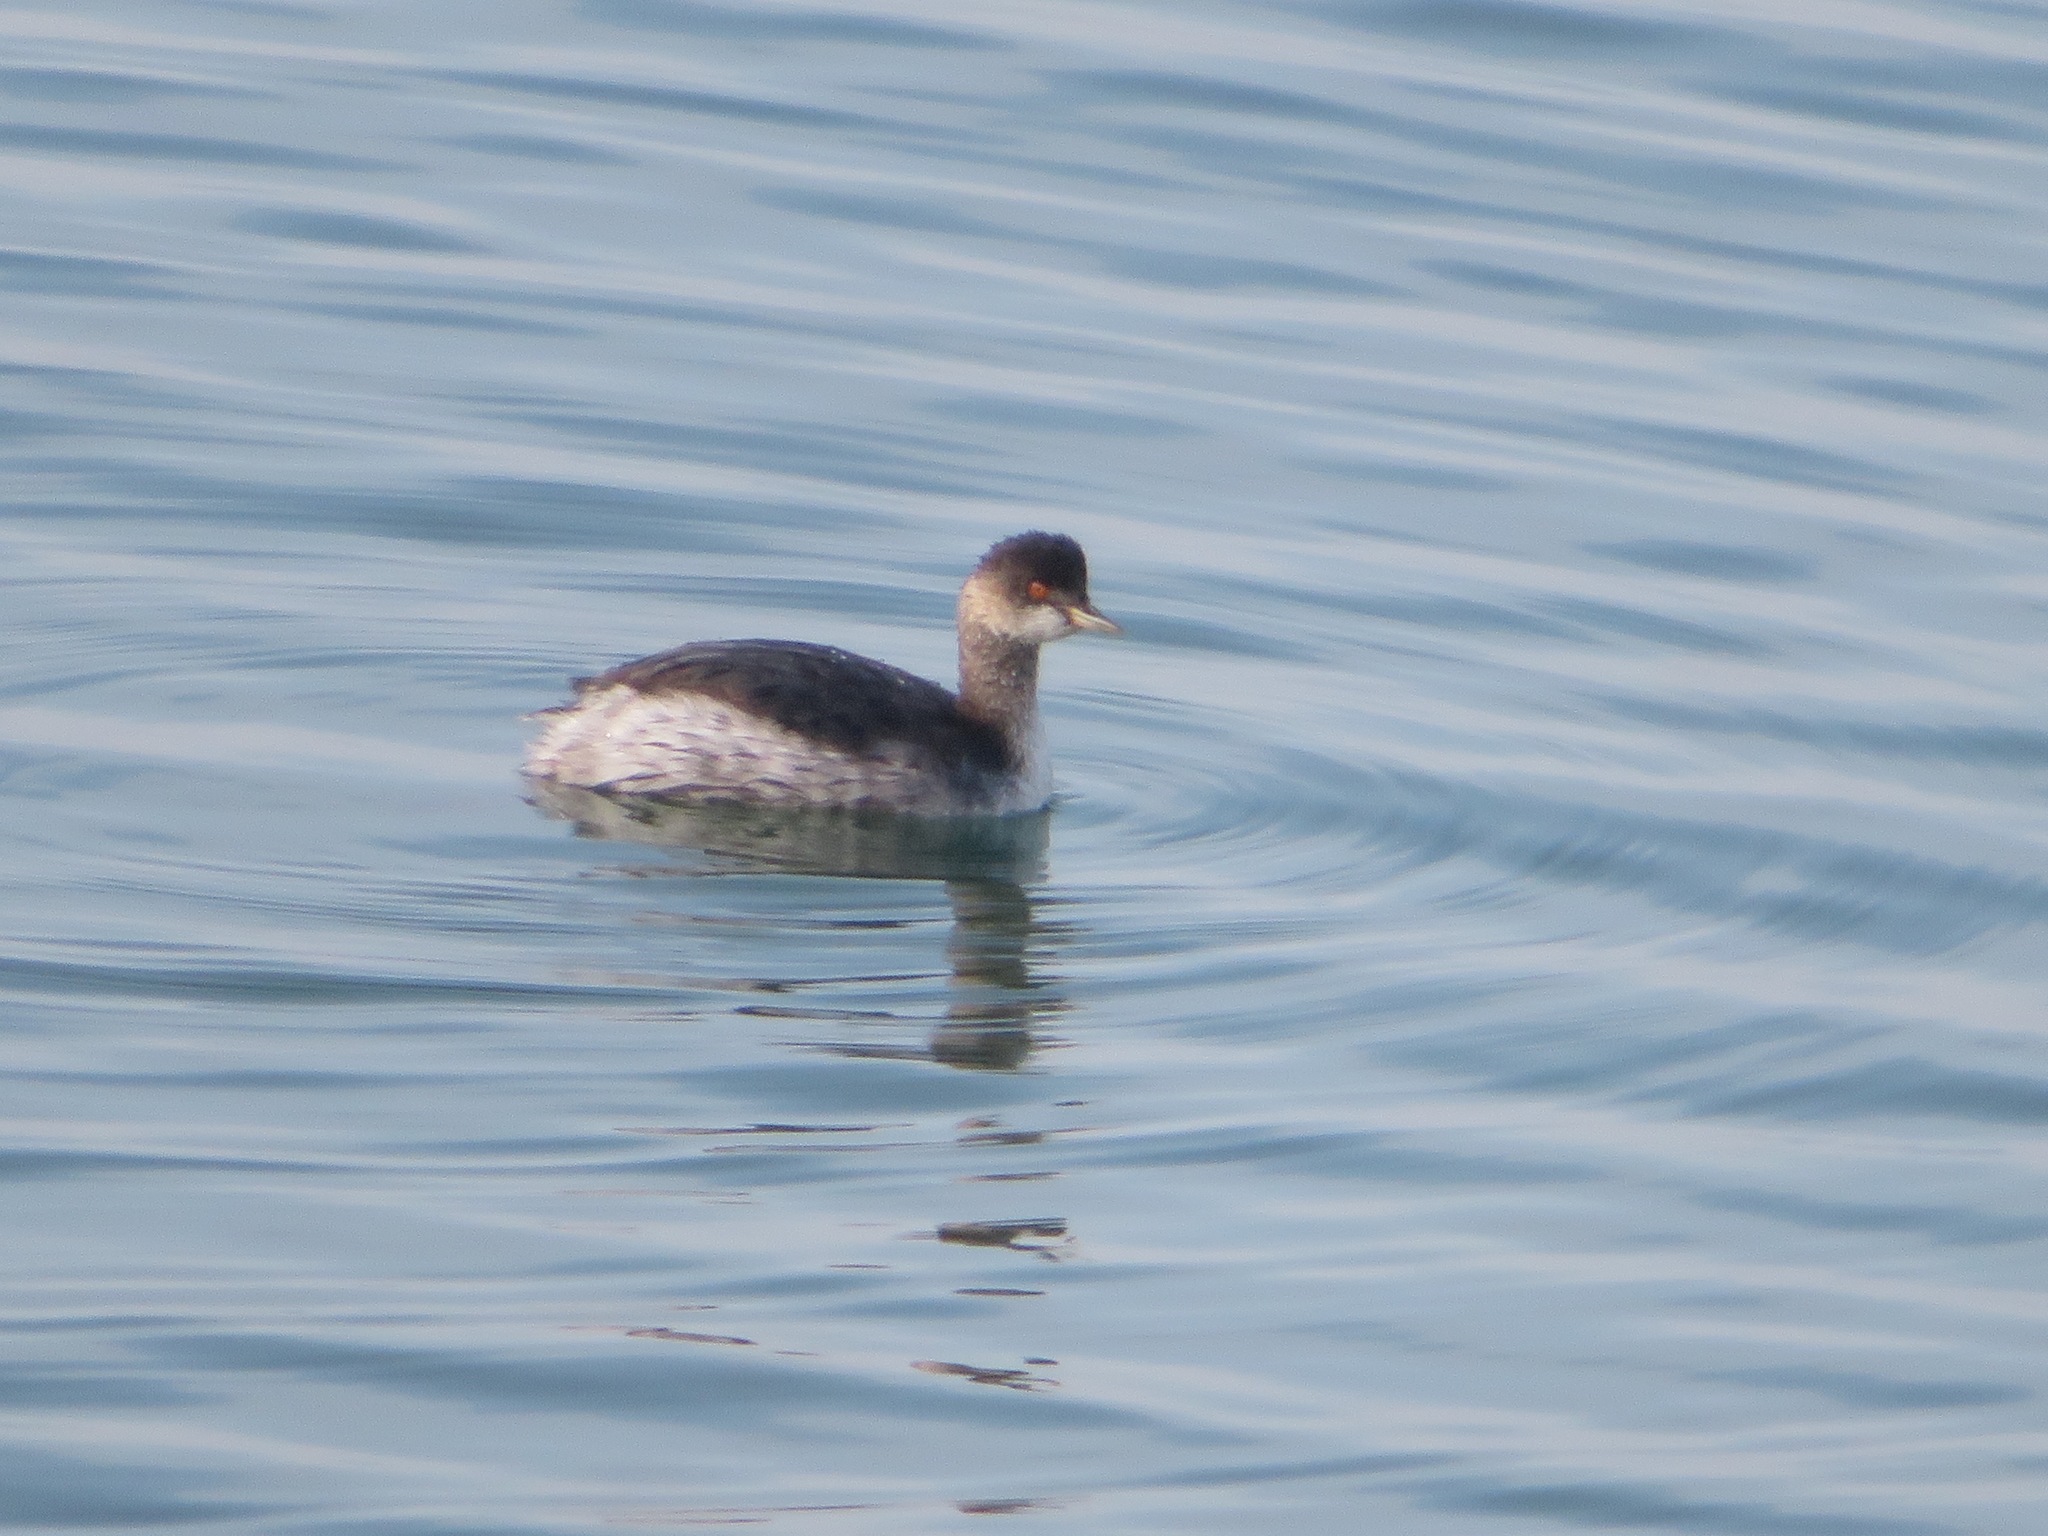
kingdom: Animalia
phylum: Chordata
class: Aves
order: Podicipediformes
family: Podicipedidae
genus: Podiceps
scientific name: Podiceps nigricollis
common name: Black-necked grebe
